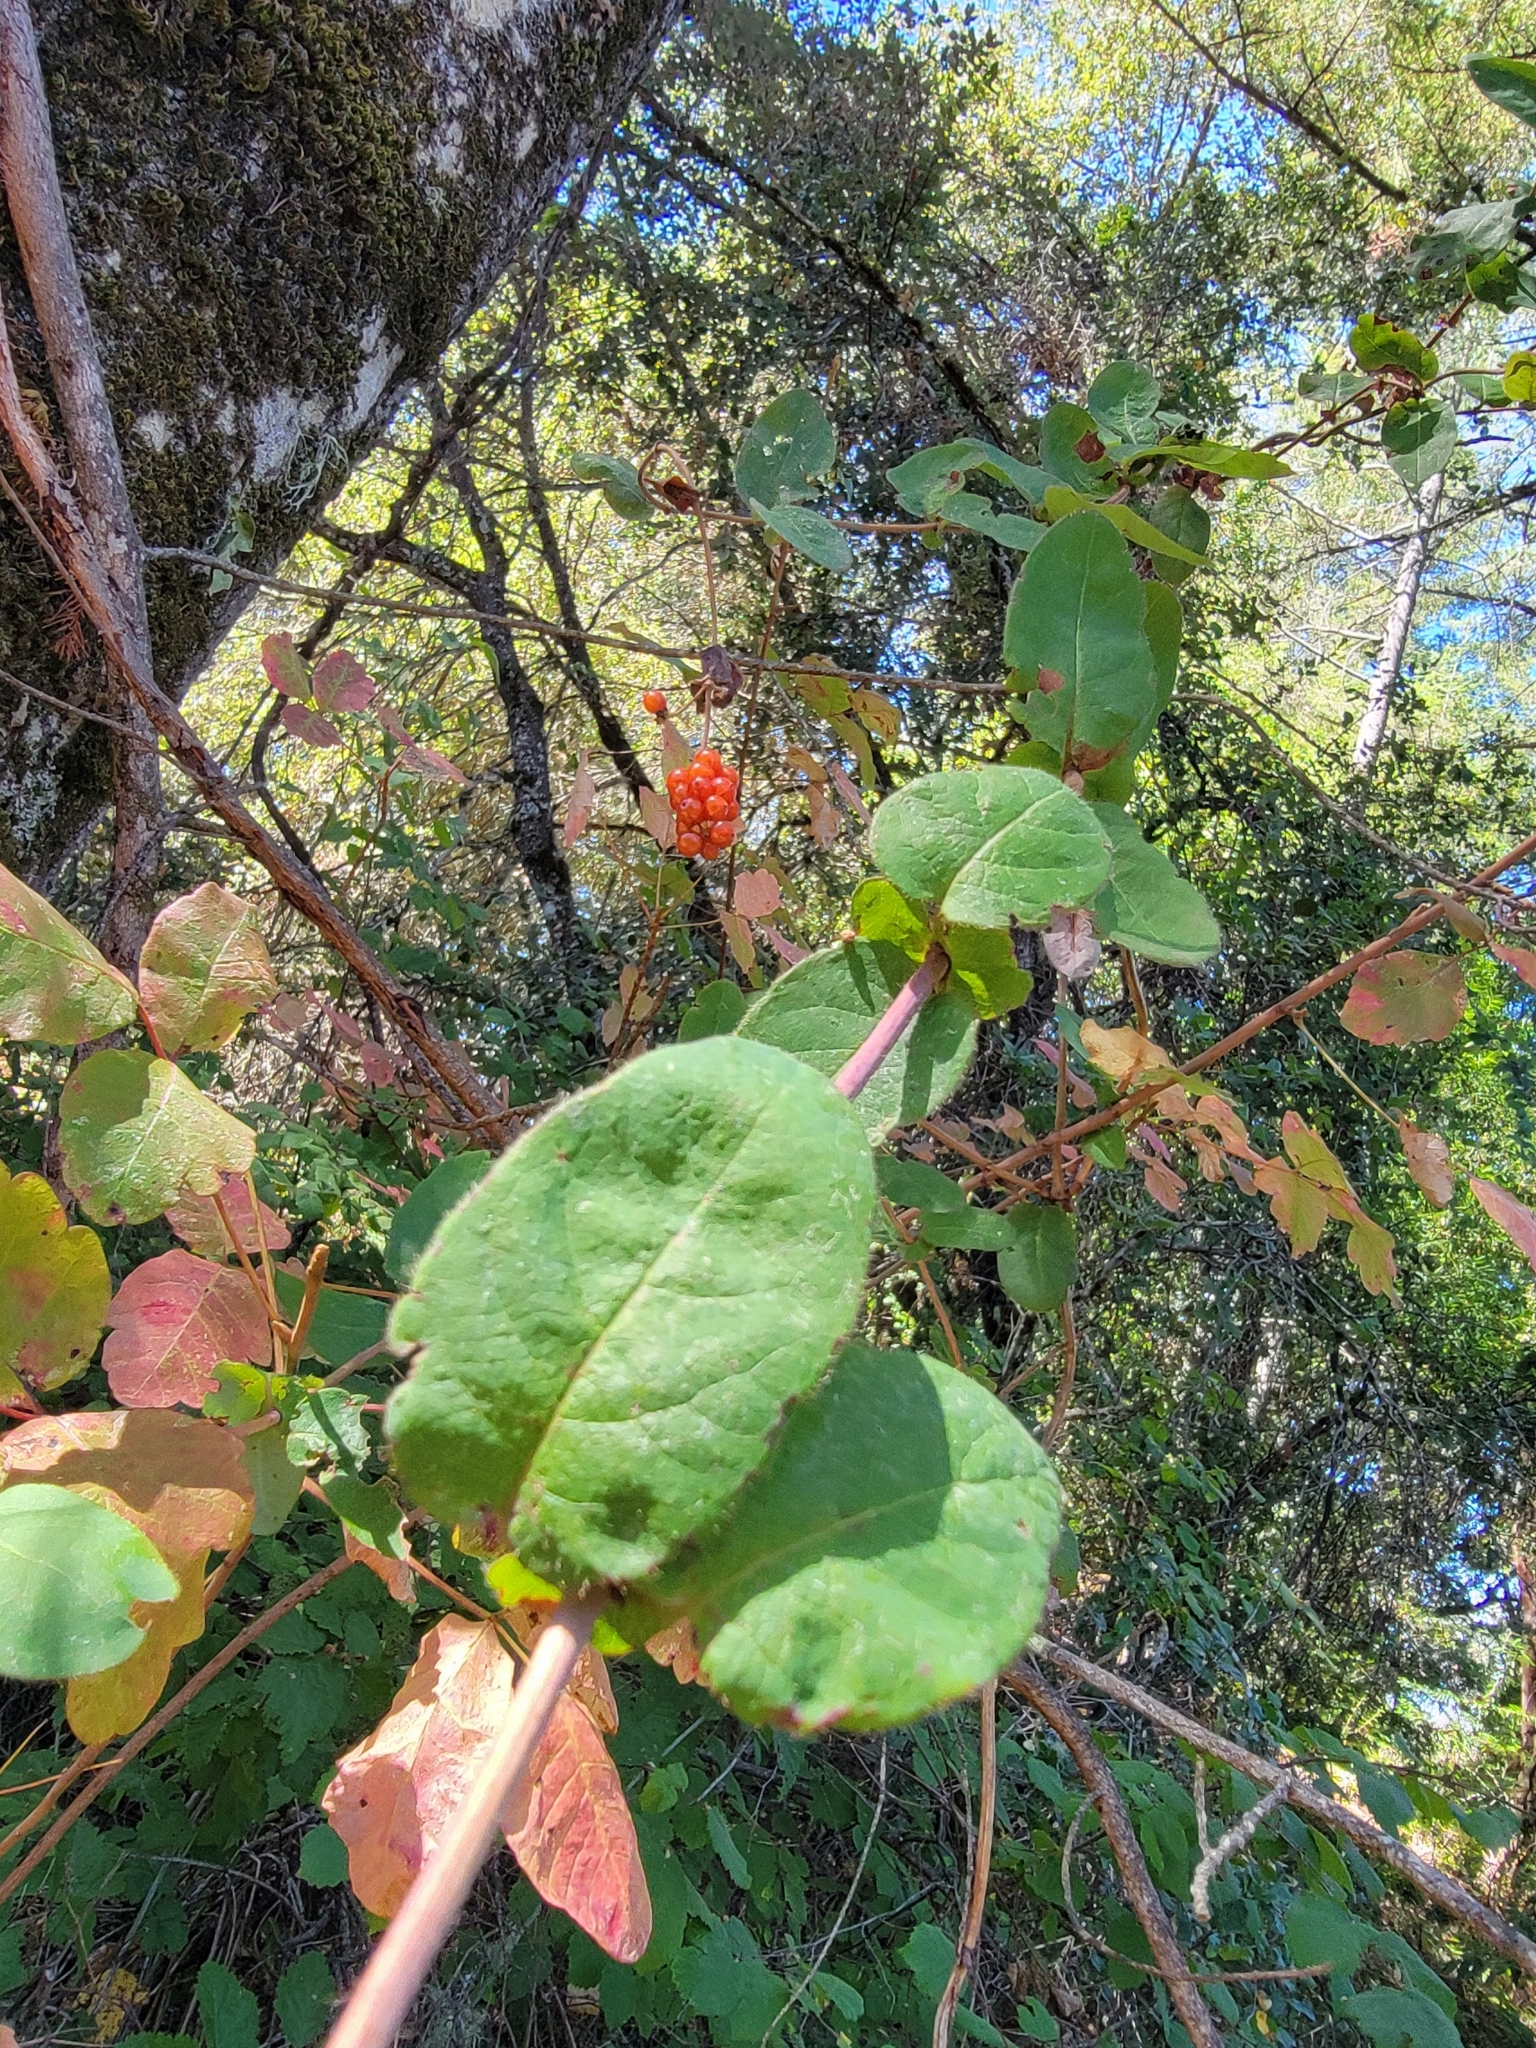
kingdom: Plantae
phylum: Tracheophyta
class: Magnoliopsida
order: Dipsacales
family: Caprifoliaceae
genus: Lonicera
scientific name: Lonicera hispidula
